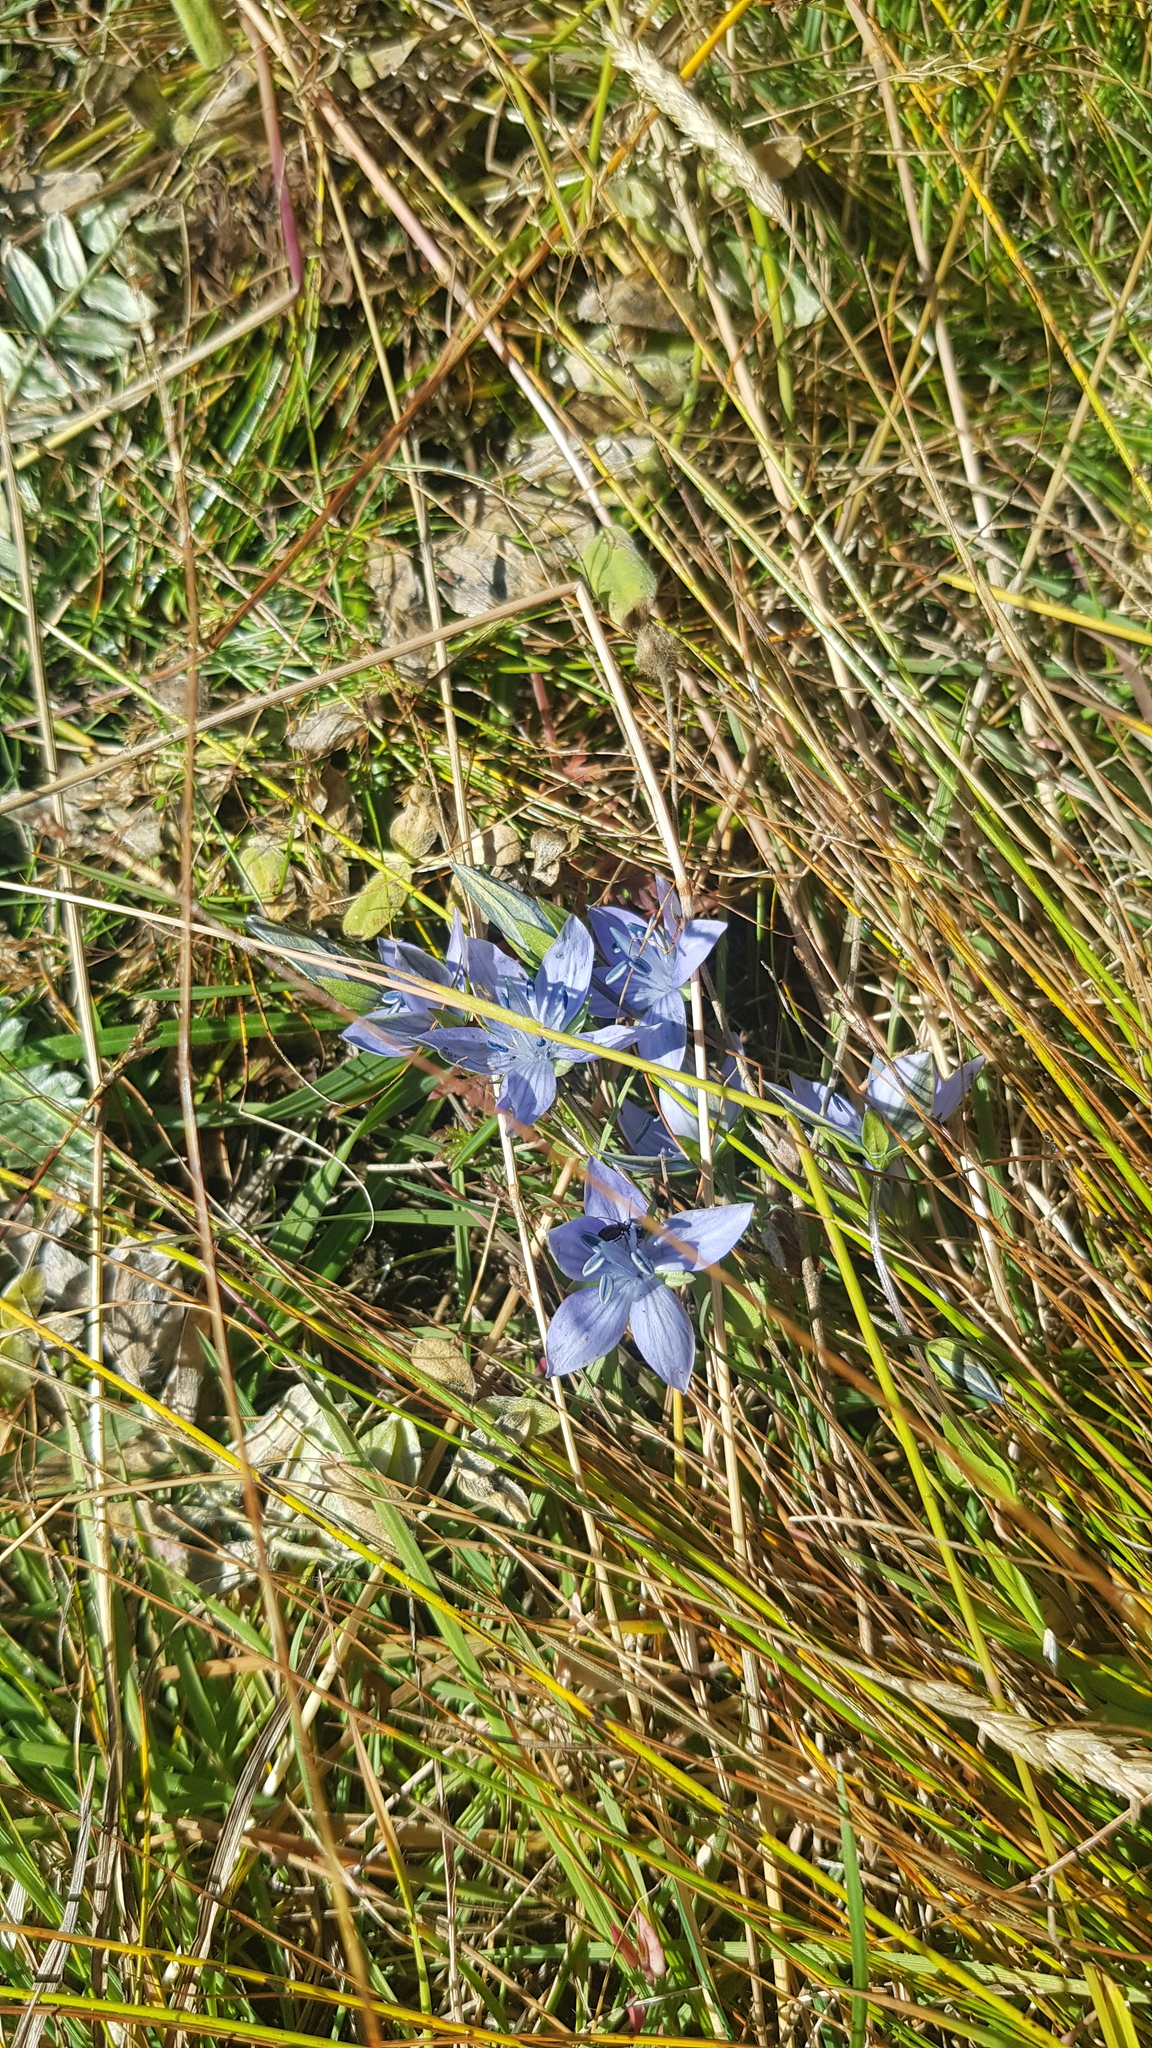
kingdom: Plantae
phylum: Tracheophyta
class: Magnoliopsida
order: Gentianales
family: Gentianaceae
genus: Lomatogonium
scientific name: Lomatogonium carinthiacum
